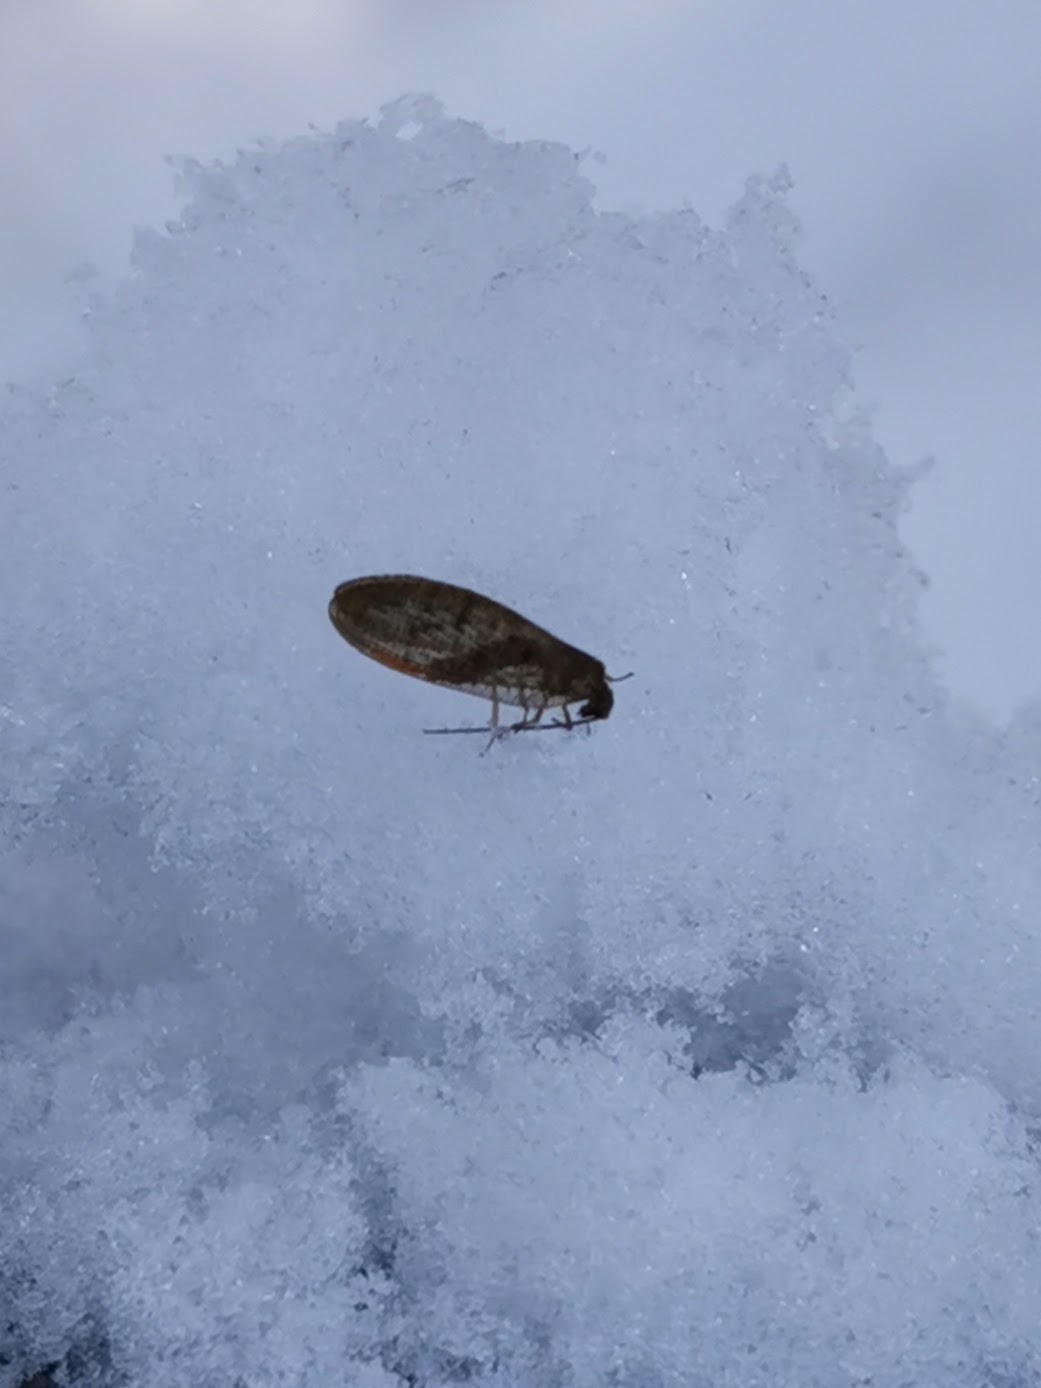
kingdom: Animalia
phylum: Arthropoda
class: Insecta
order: Neuroptera
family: Hemerobiidae
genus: Hemerobius
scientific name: Hemerobius stigma
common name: Brown pine lacewing
